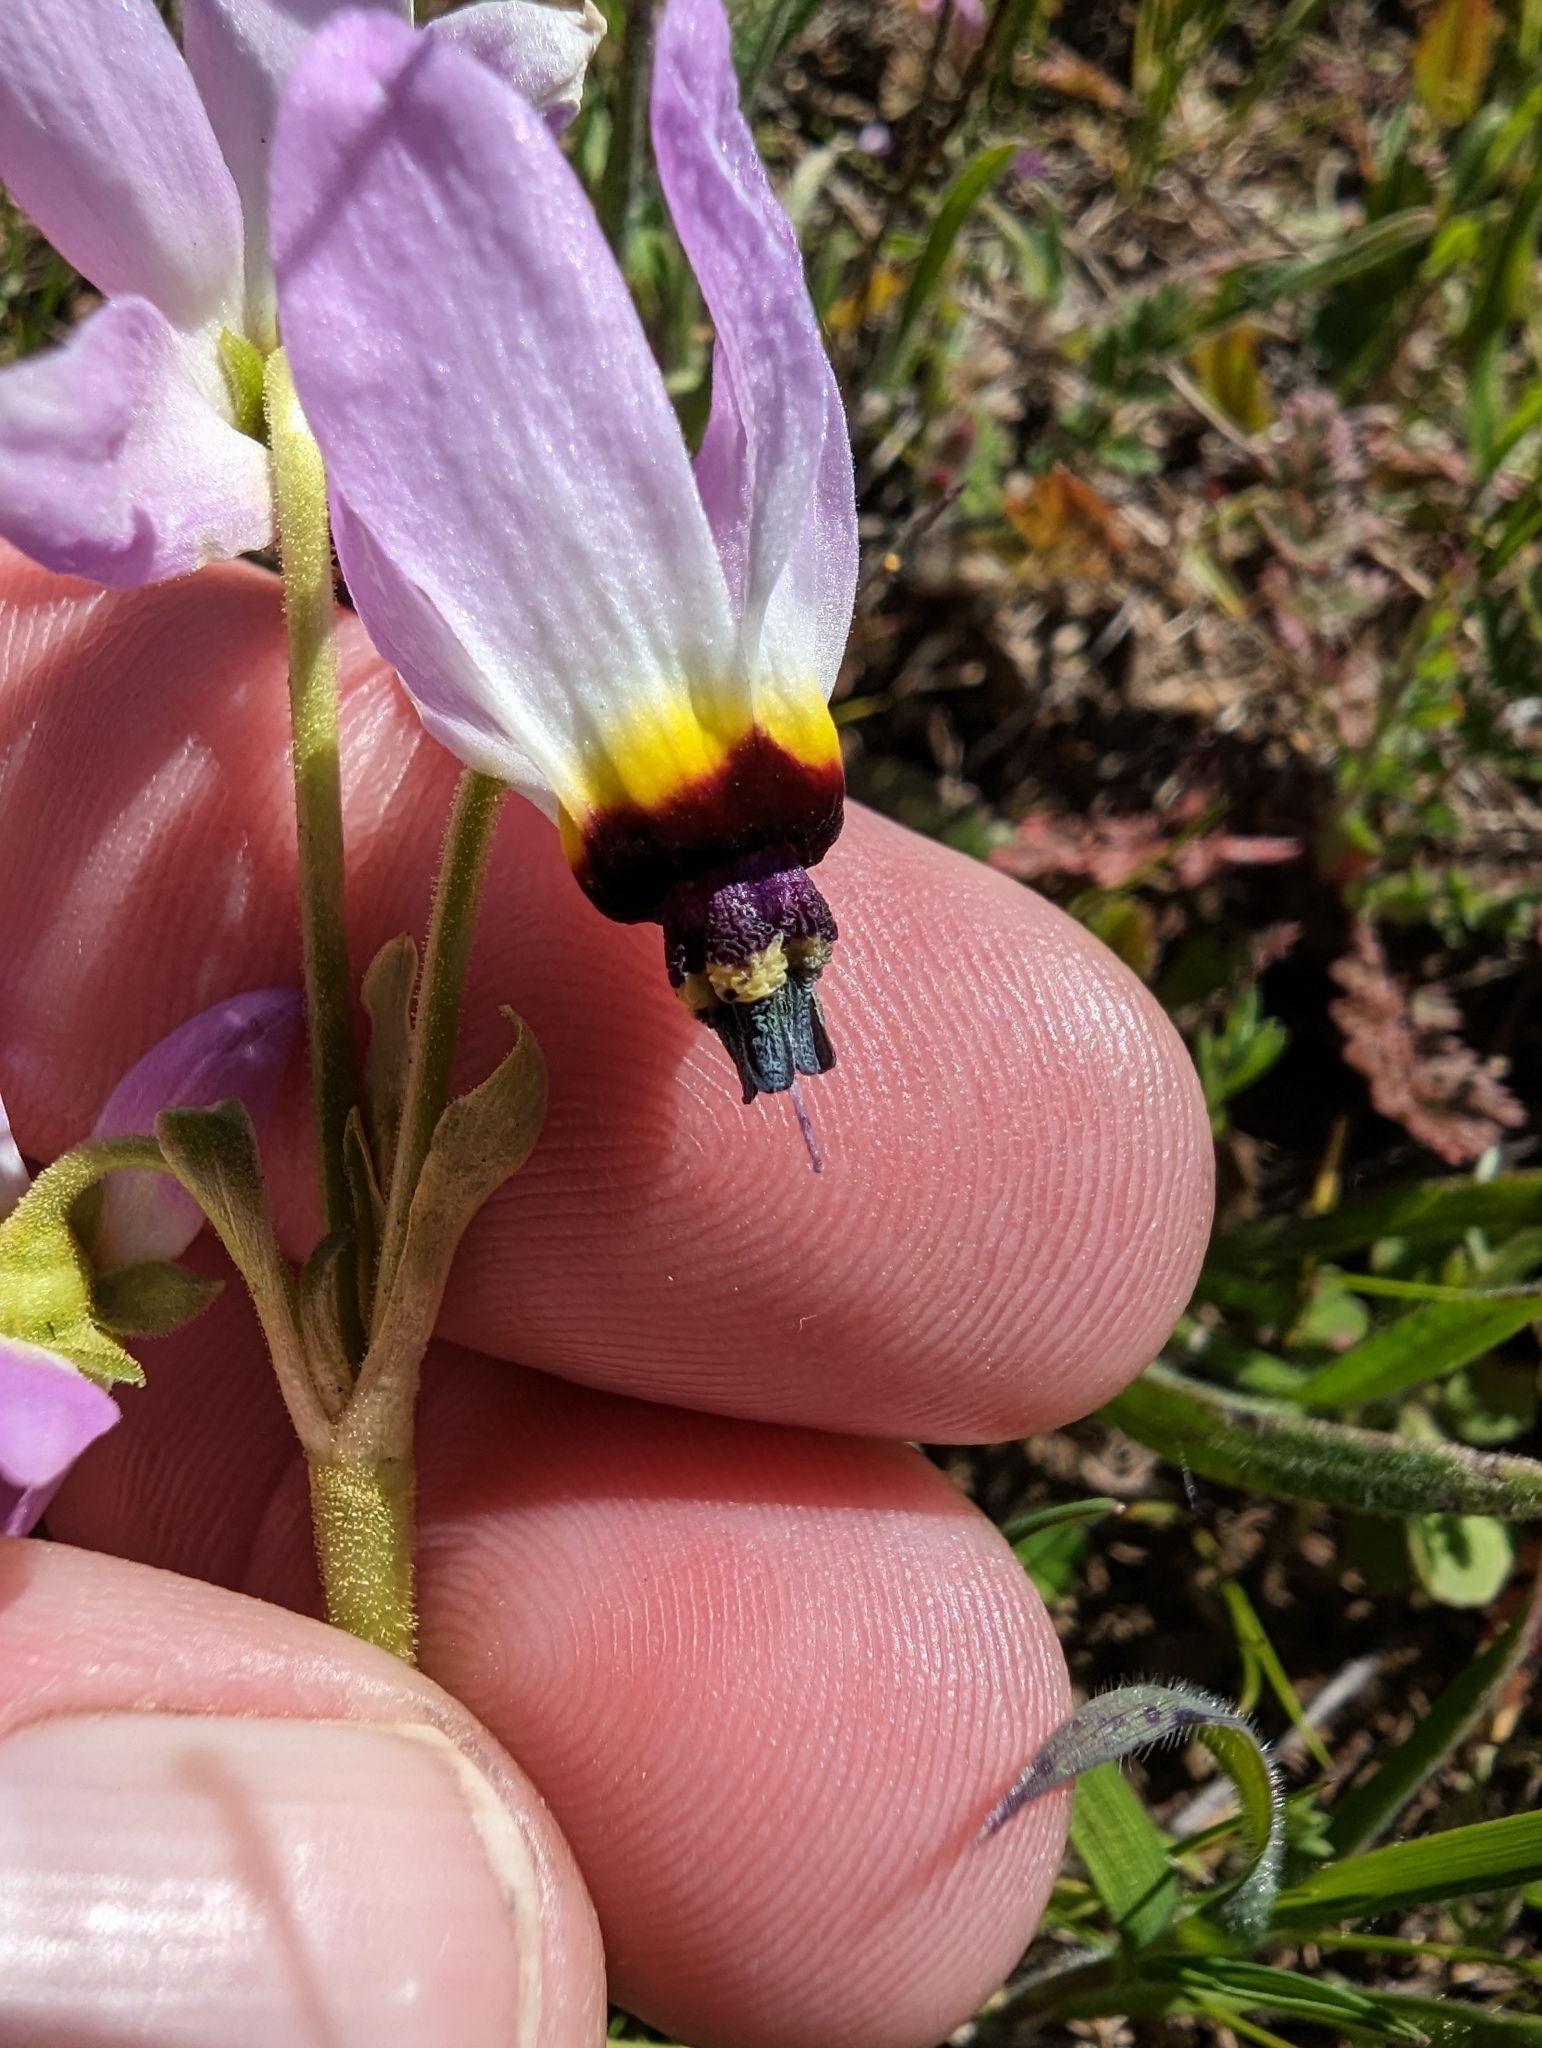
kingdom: Plantae
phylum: Tracheophyta
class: Magnoliopsida
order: Ericales
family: Primulaceae
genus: Dodecatheon
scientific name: Dodecatheon clevelandii
